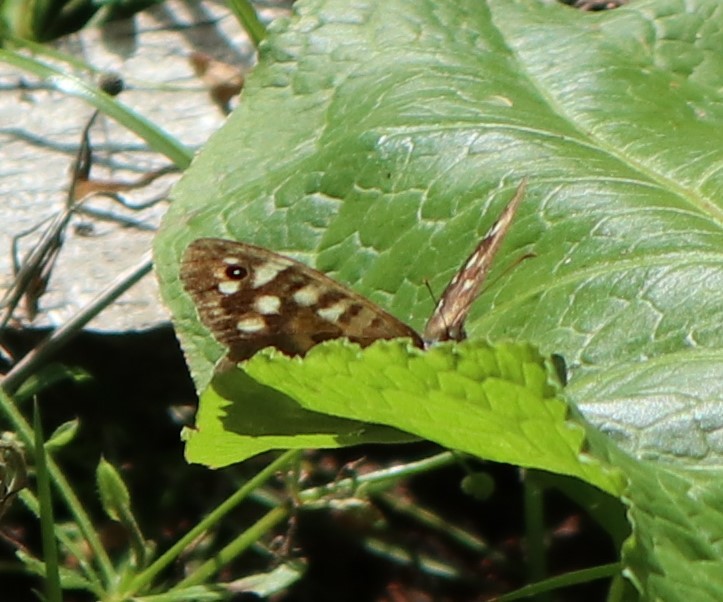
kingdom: Animalia
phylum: Arthropoda
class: Insecta
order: Lepidoptera
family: Nymphalidae
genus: Pararge
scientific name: Pararge aegeria
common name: Speckled wood
